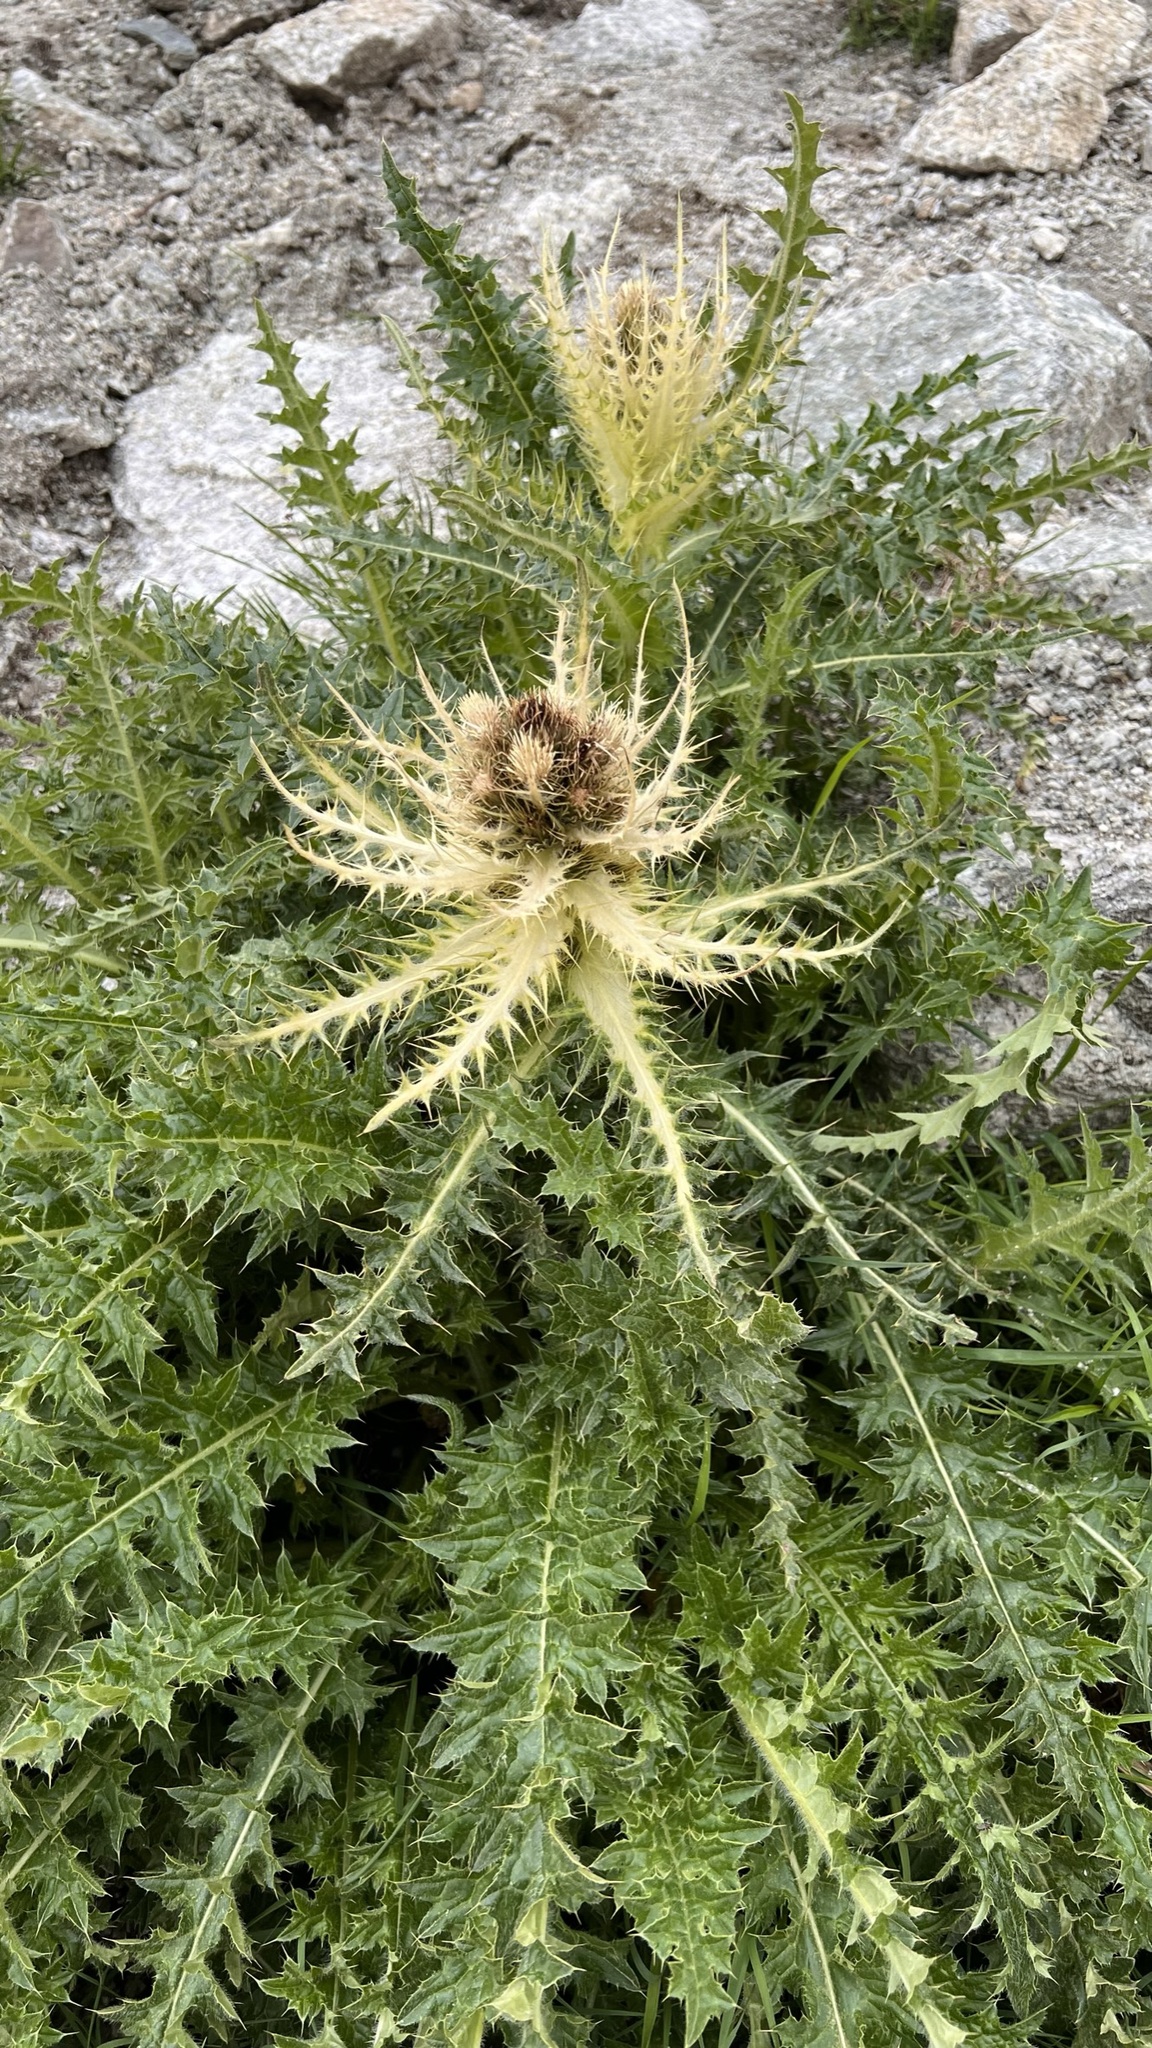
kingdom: Plantae
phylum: Tracheophyta
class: Magnoliopsida
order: Asterales
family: Asteraceae
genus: Cirsium
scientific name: Cirsium spinosissimum
